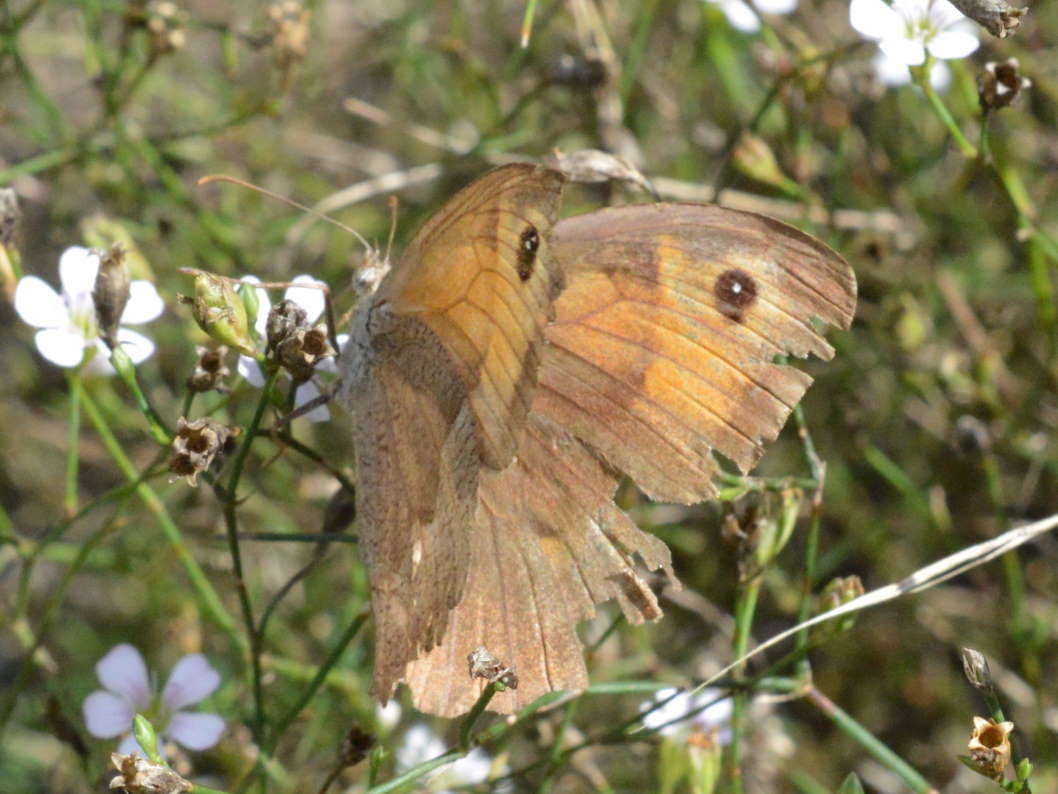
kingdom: Animalia
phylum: Arthropoda
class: Insecta
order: Lepidoptera
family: Nymphalidae
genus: Maniola
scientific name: Maniola jurtina
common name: Meadow brown
